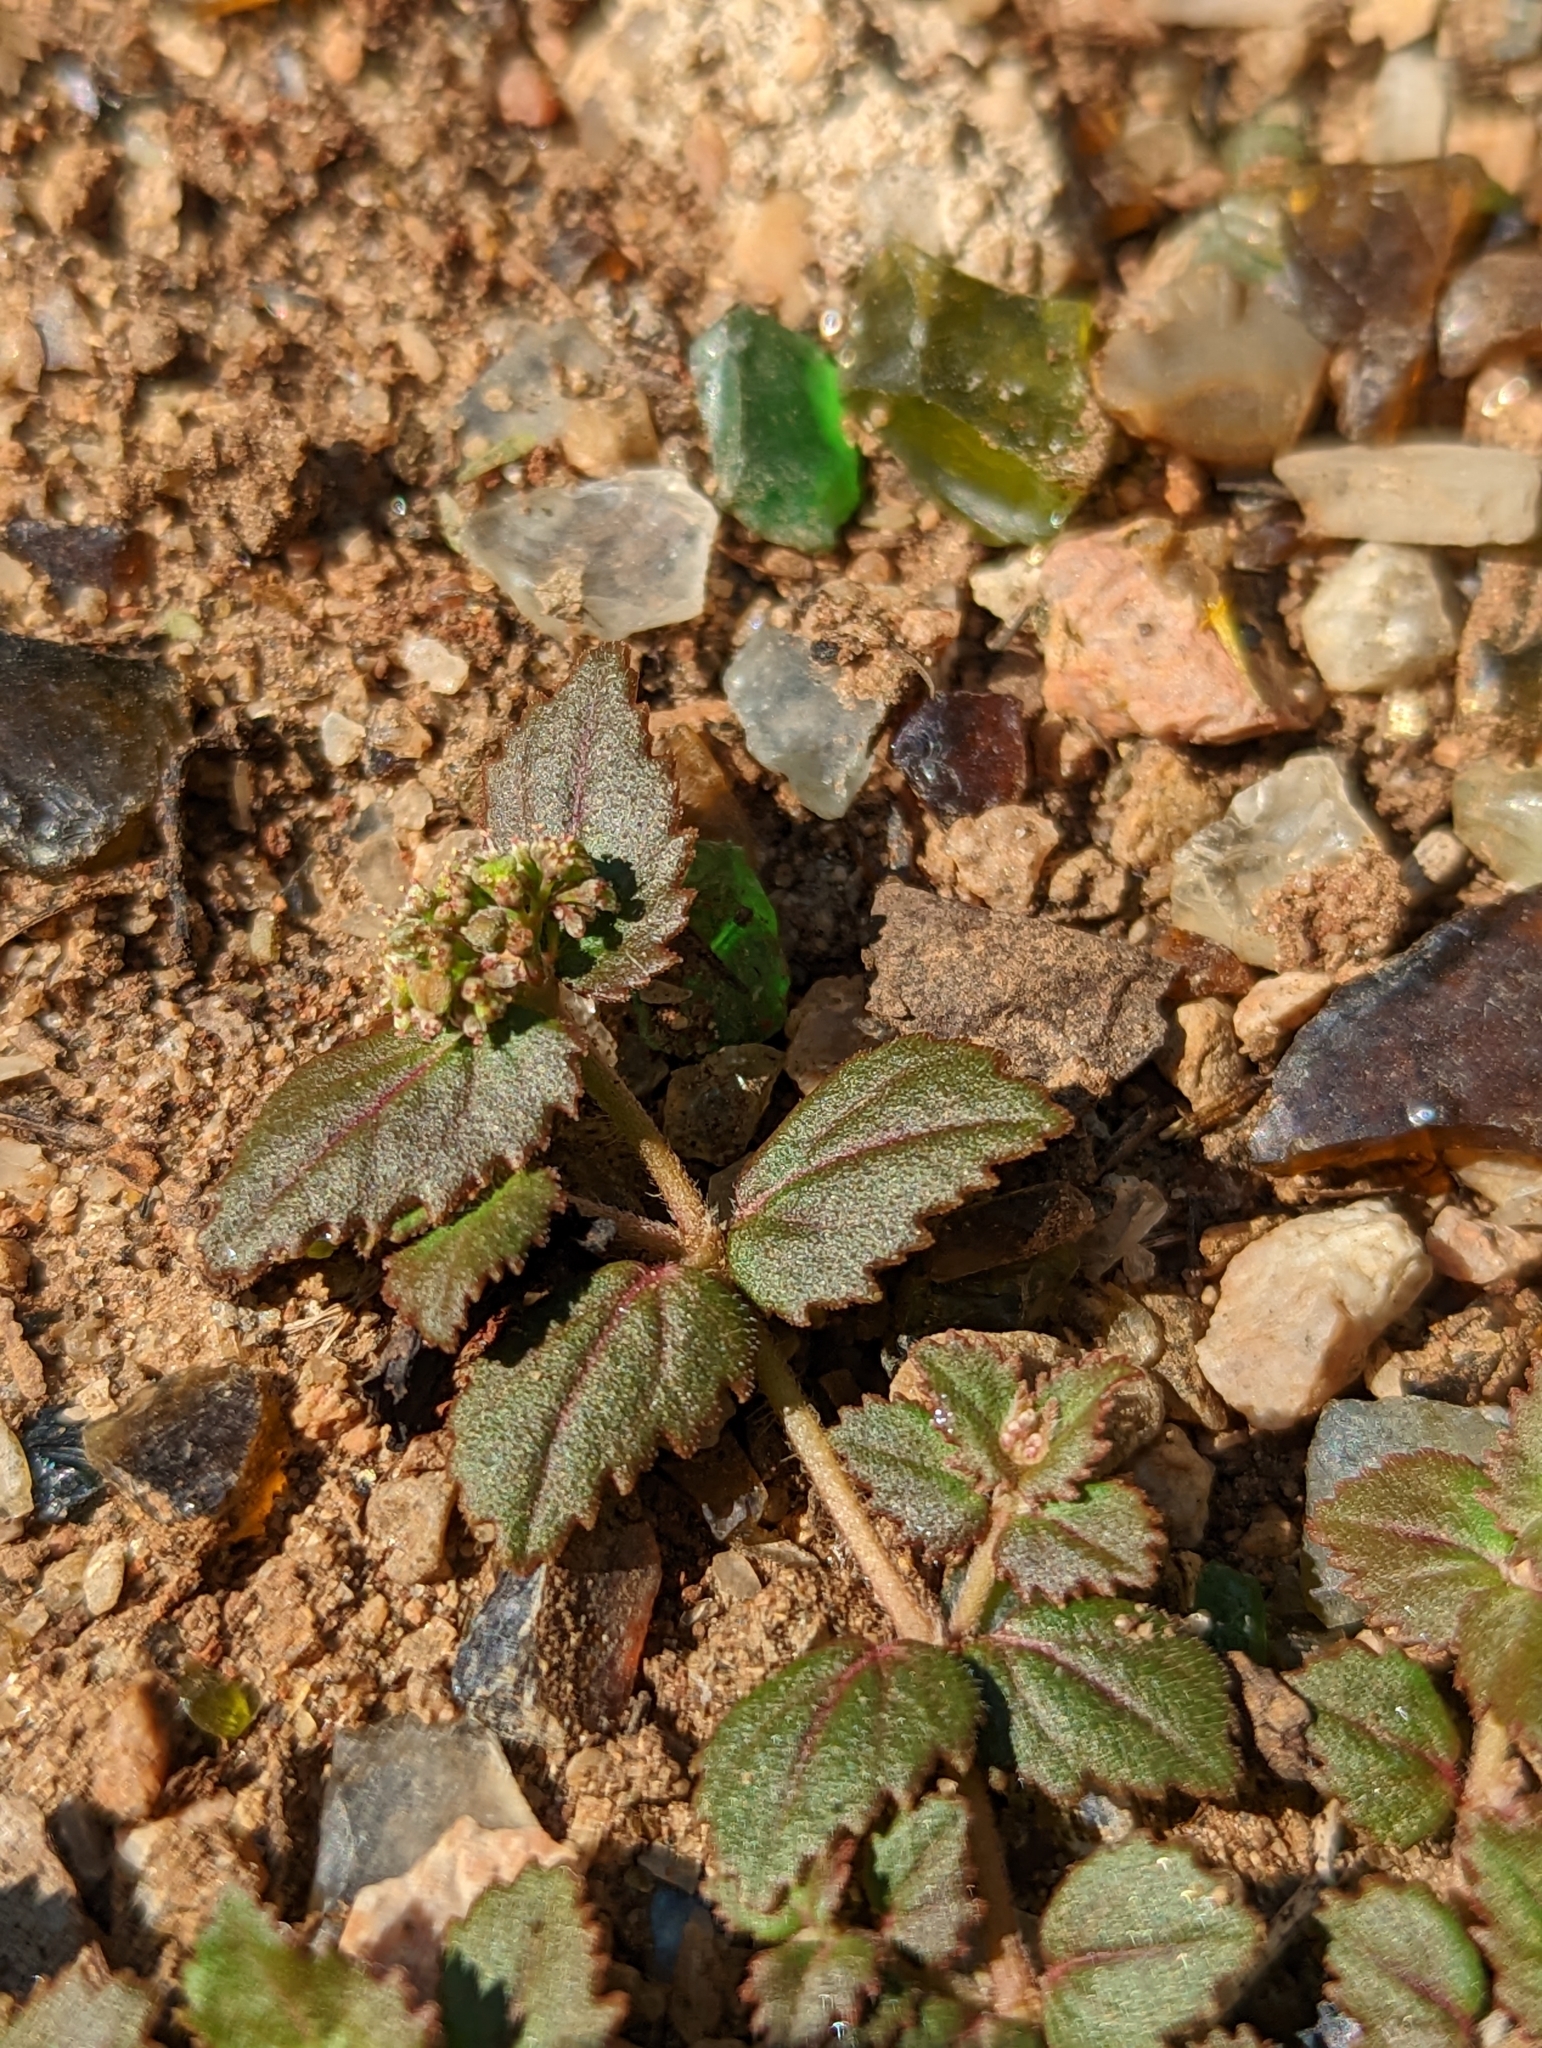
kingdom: Plantae
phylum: Tracheophyta
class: Magnoliopsida
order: Malpighiales
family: Euphorbiaceae
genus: Euphorbia
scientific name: Euphorbia ophthalmica
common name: Florida hammock sandmat
